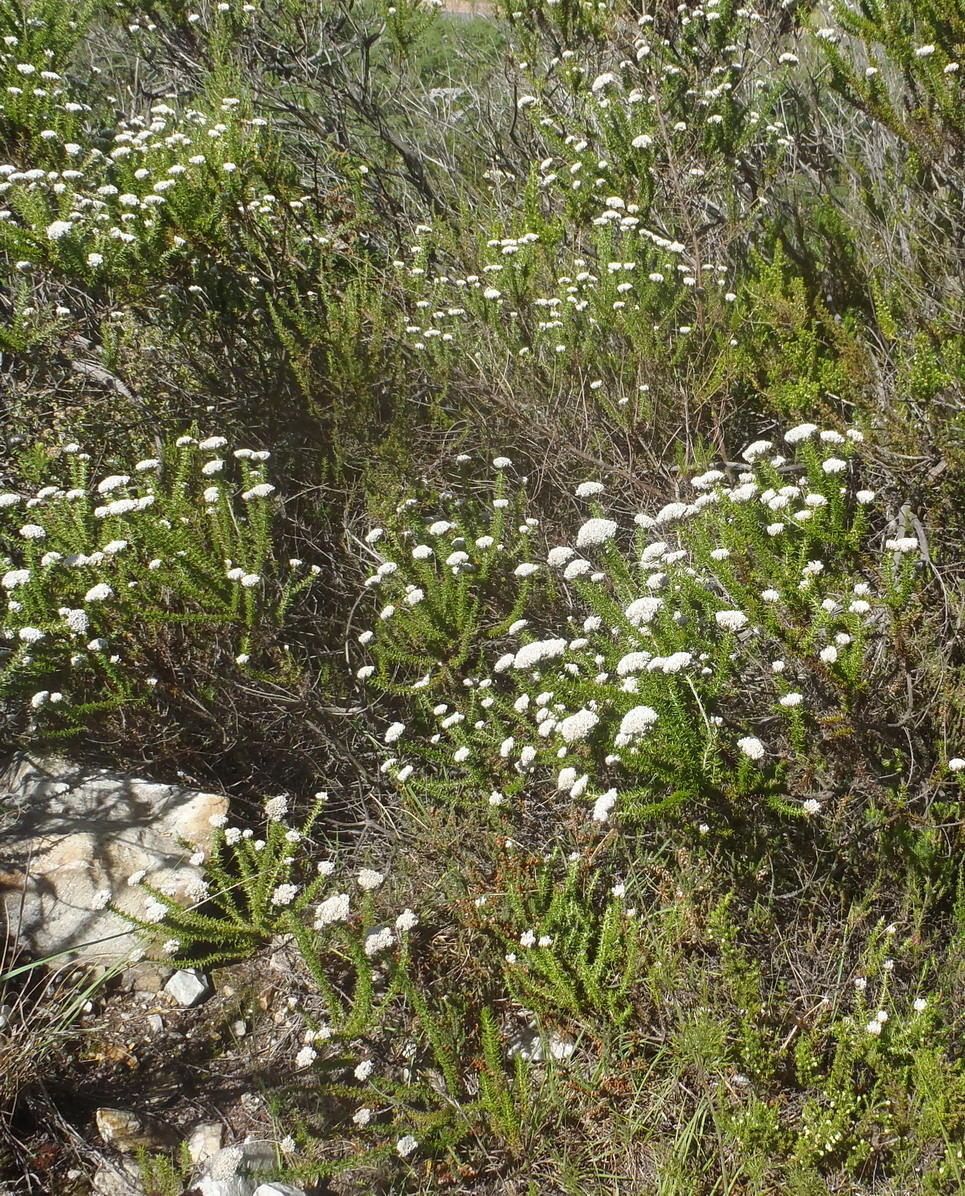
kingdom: Plantae
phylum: Tracheophyta
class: Magnoliopsida
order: Asterales
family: Asteraceae
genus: Metalasia
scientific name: Metalasia densa
